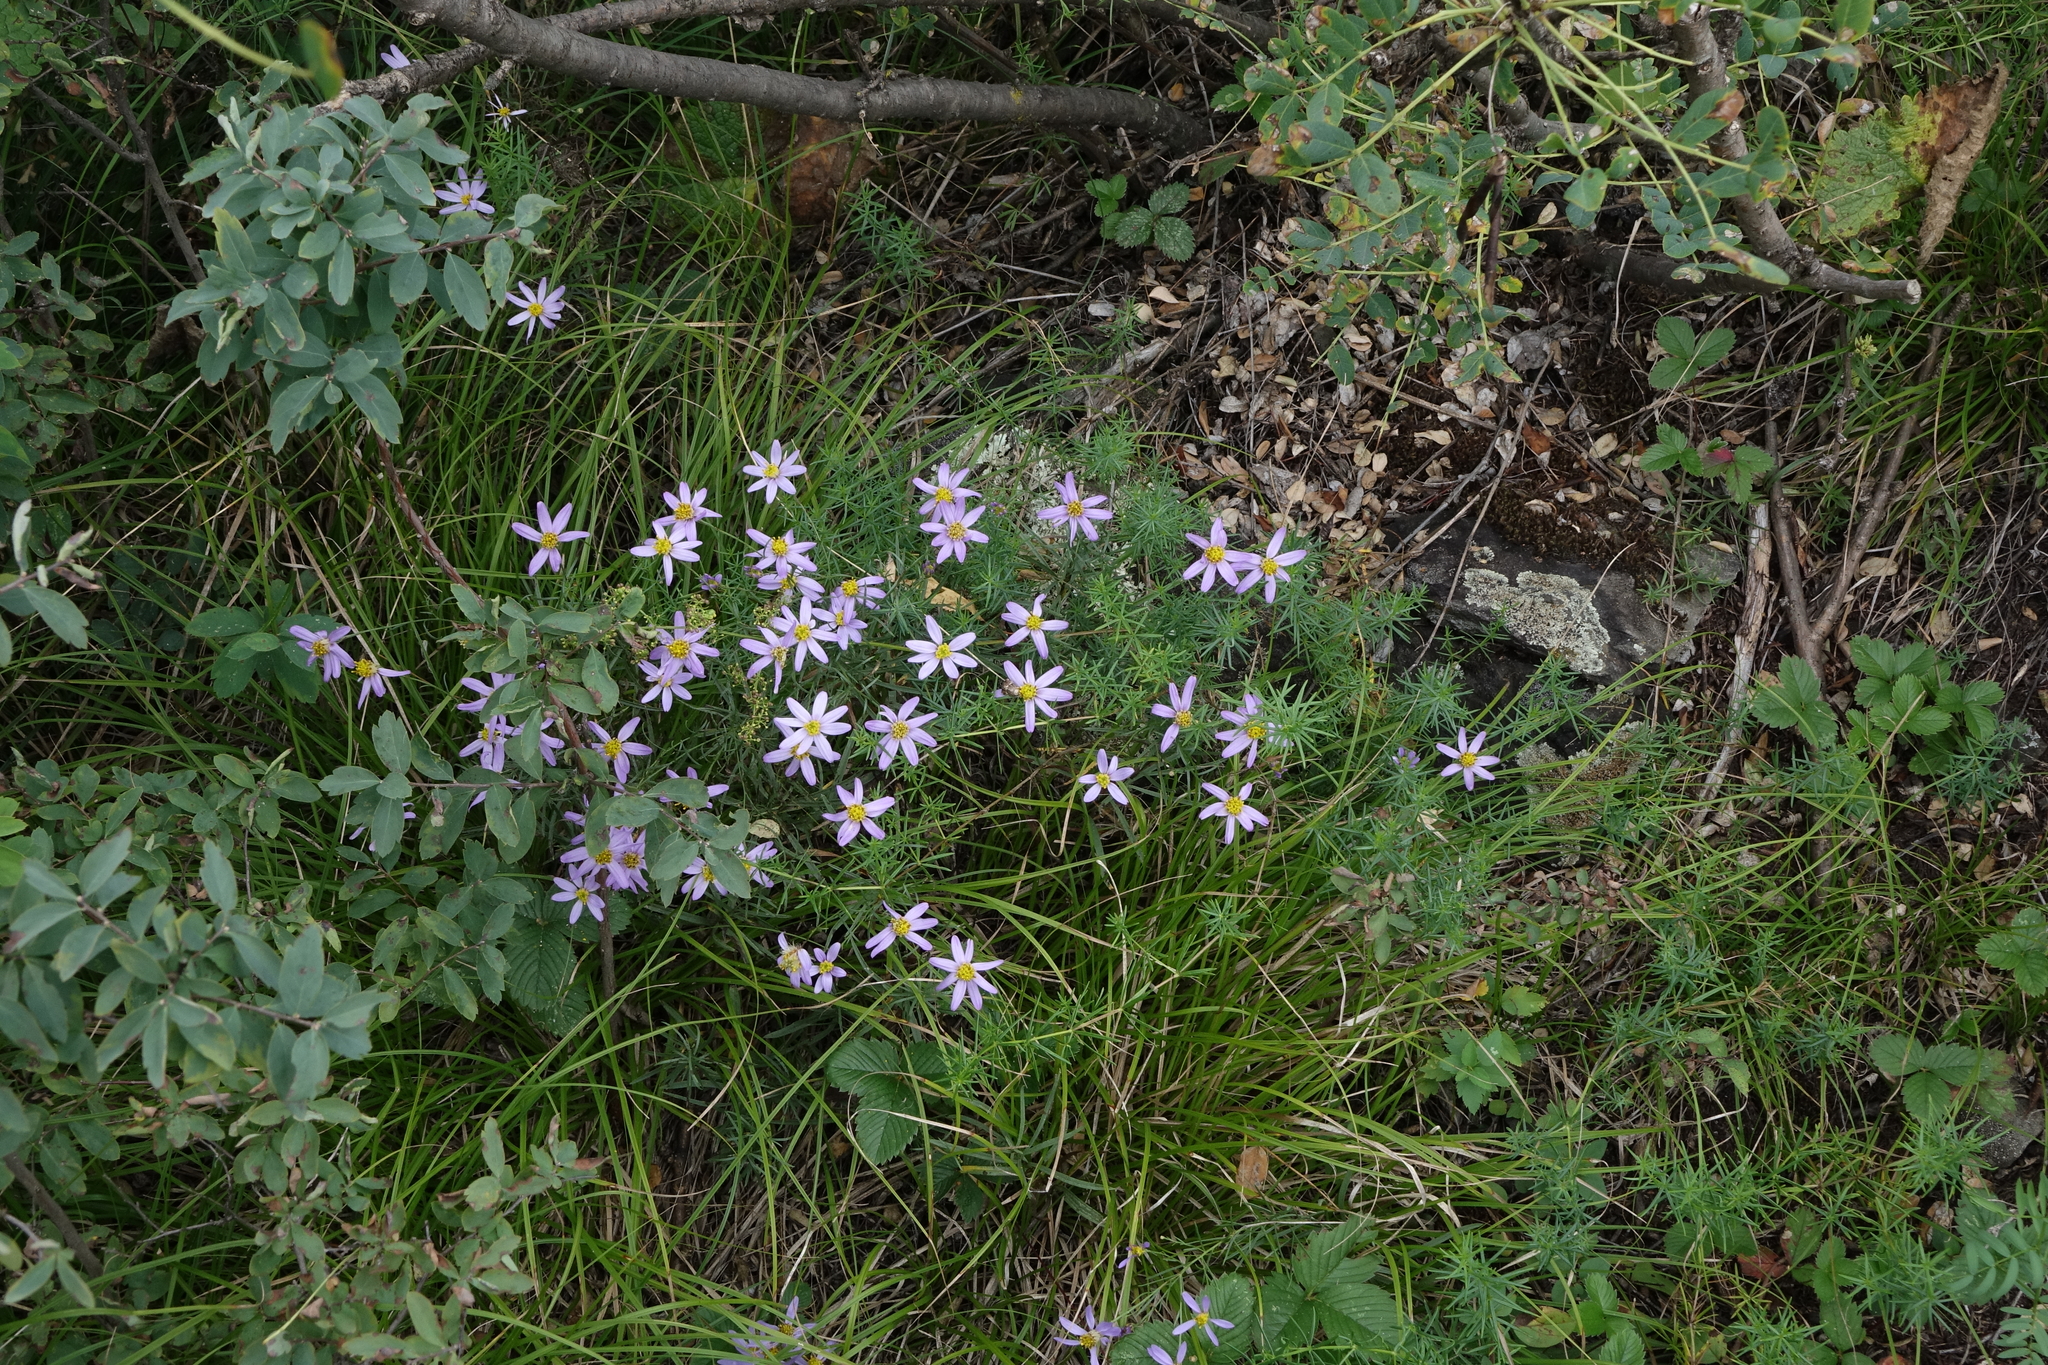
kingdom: Plantae
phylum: Tracheophyta
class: Magnoliopsida
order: Asterales
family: Asteraceae
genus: Galatella
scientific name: Galatella angustissima
